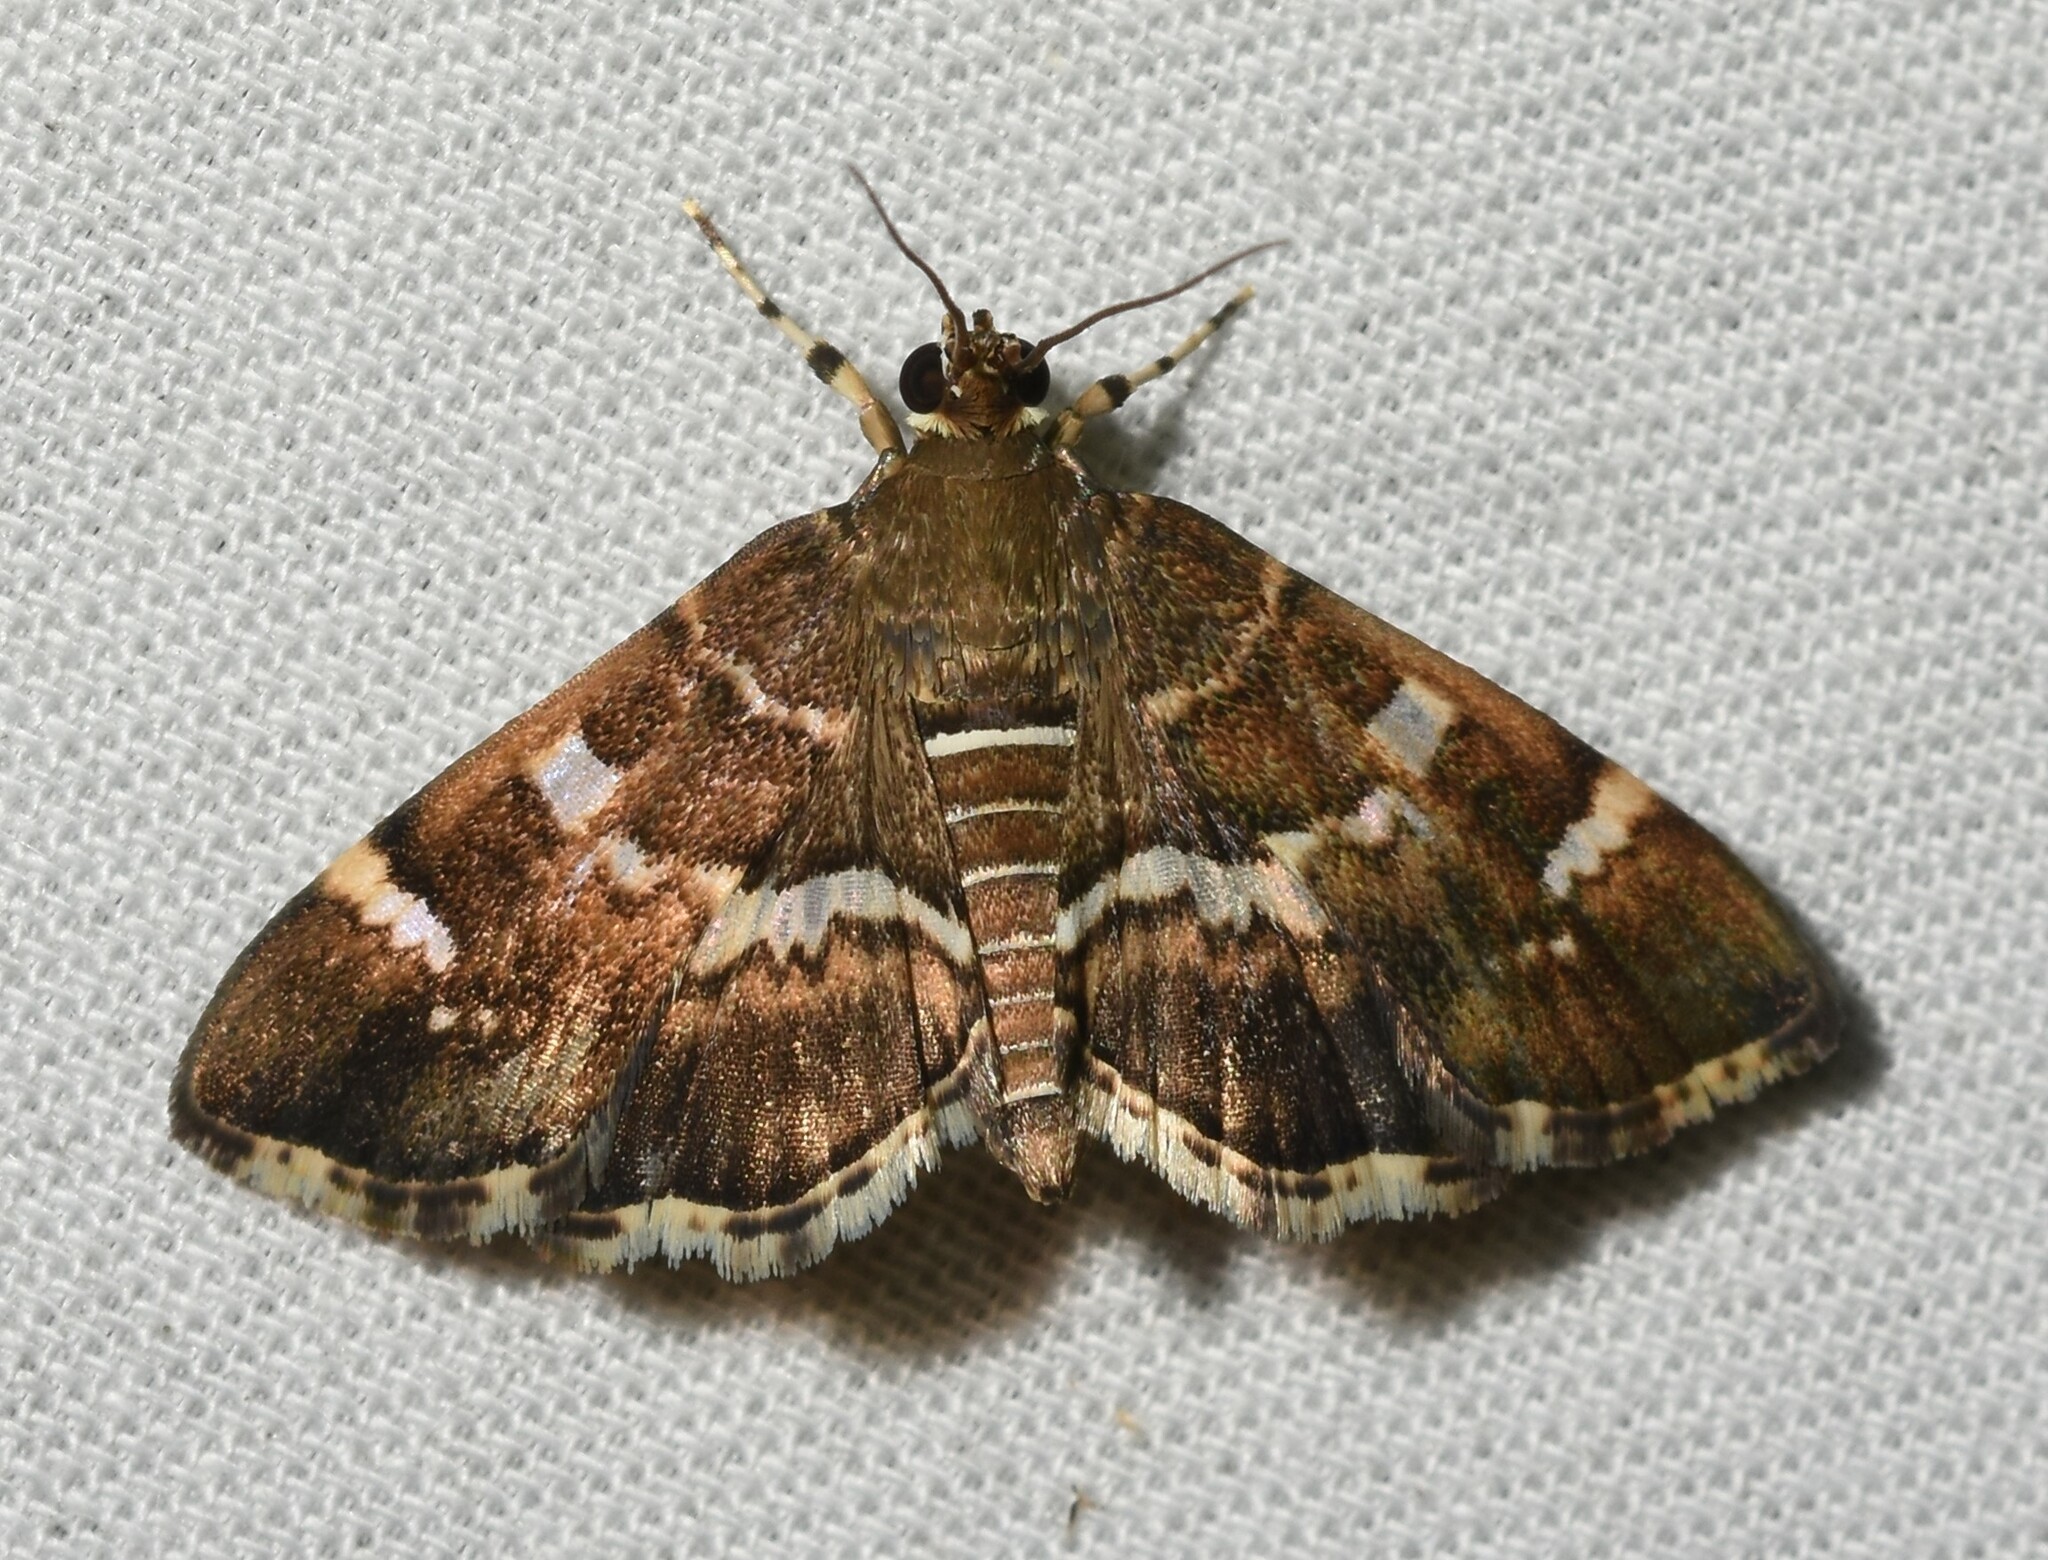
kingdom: Animalia
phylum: Arthropoda
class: Insecta
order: Lepidoptera
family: Crambidae
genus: Hymenia
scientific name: Hymenia perspectalis
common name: Spotted beet webworm
